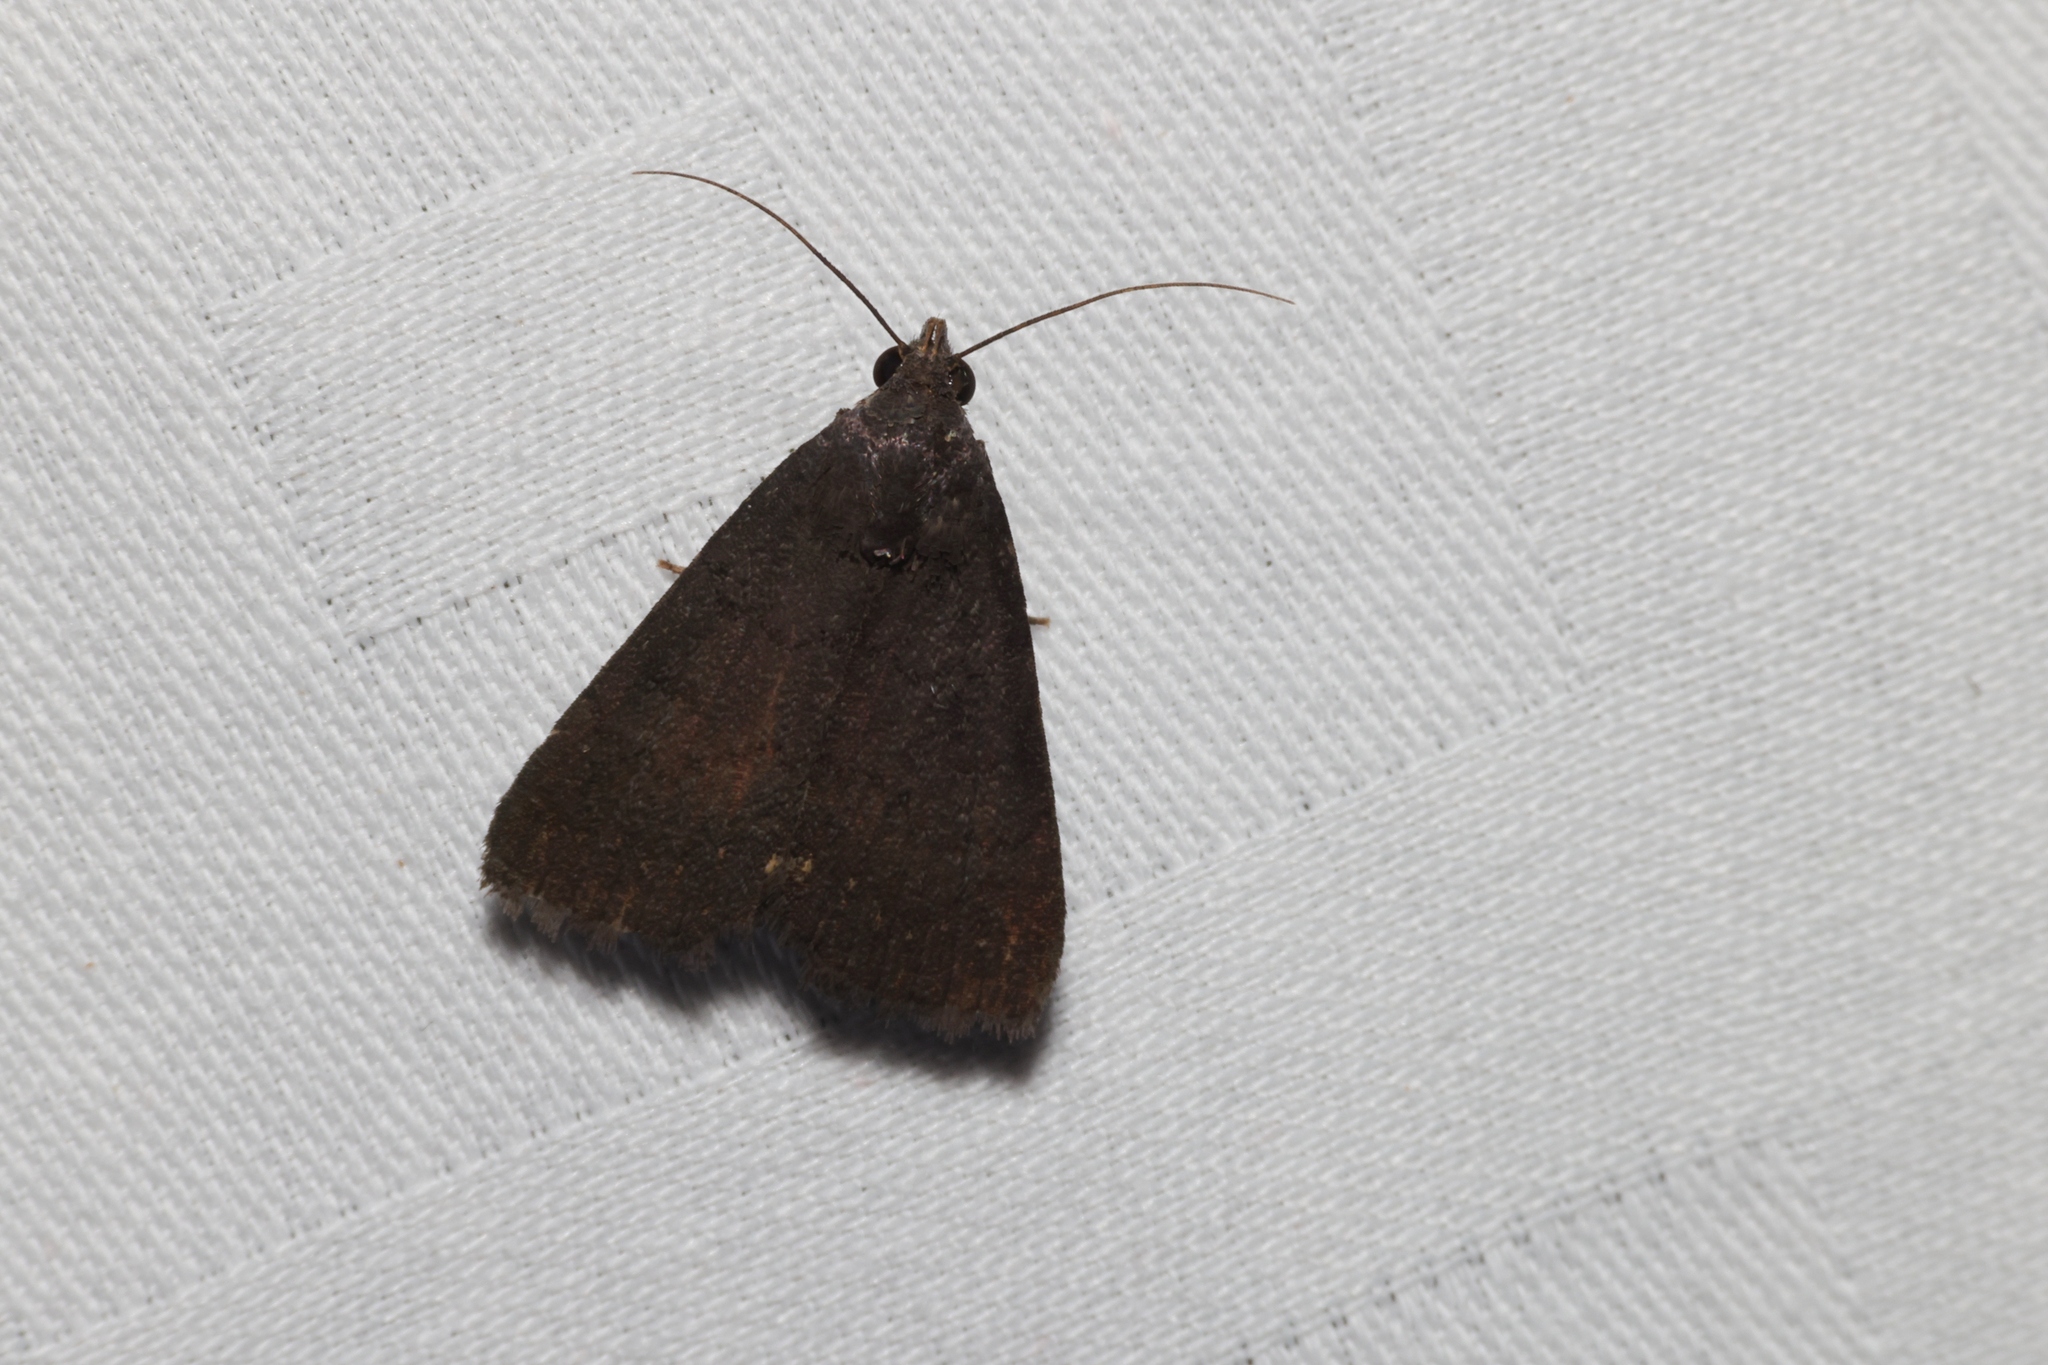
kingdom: Animalia
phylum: Arthropoda
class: Insecta
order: Lepidoptera
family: Erebidae
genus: Nodaria
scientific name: Nodaria externalis
